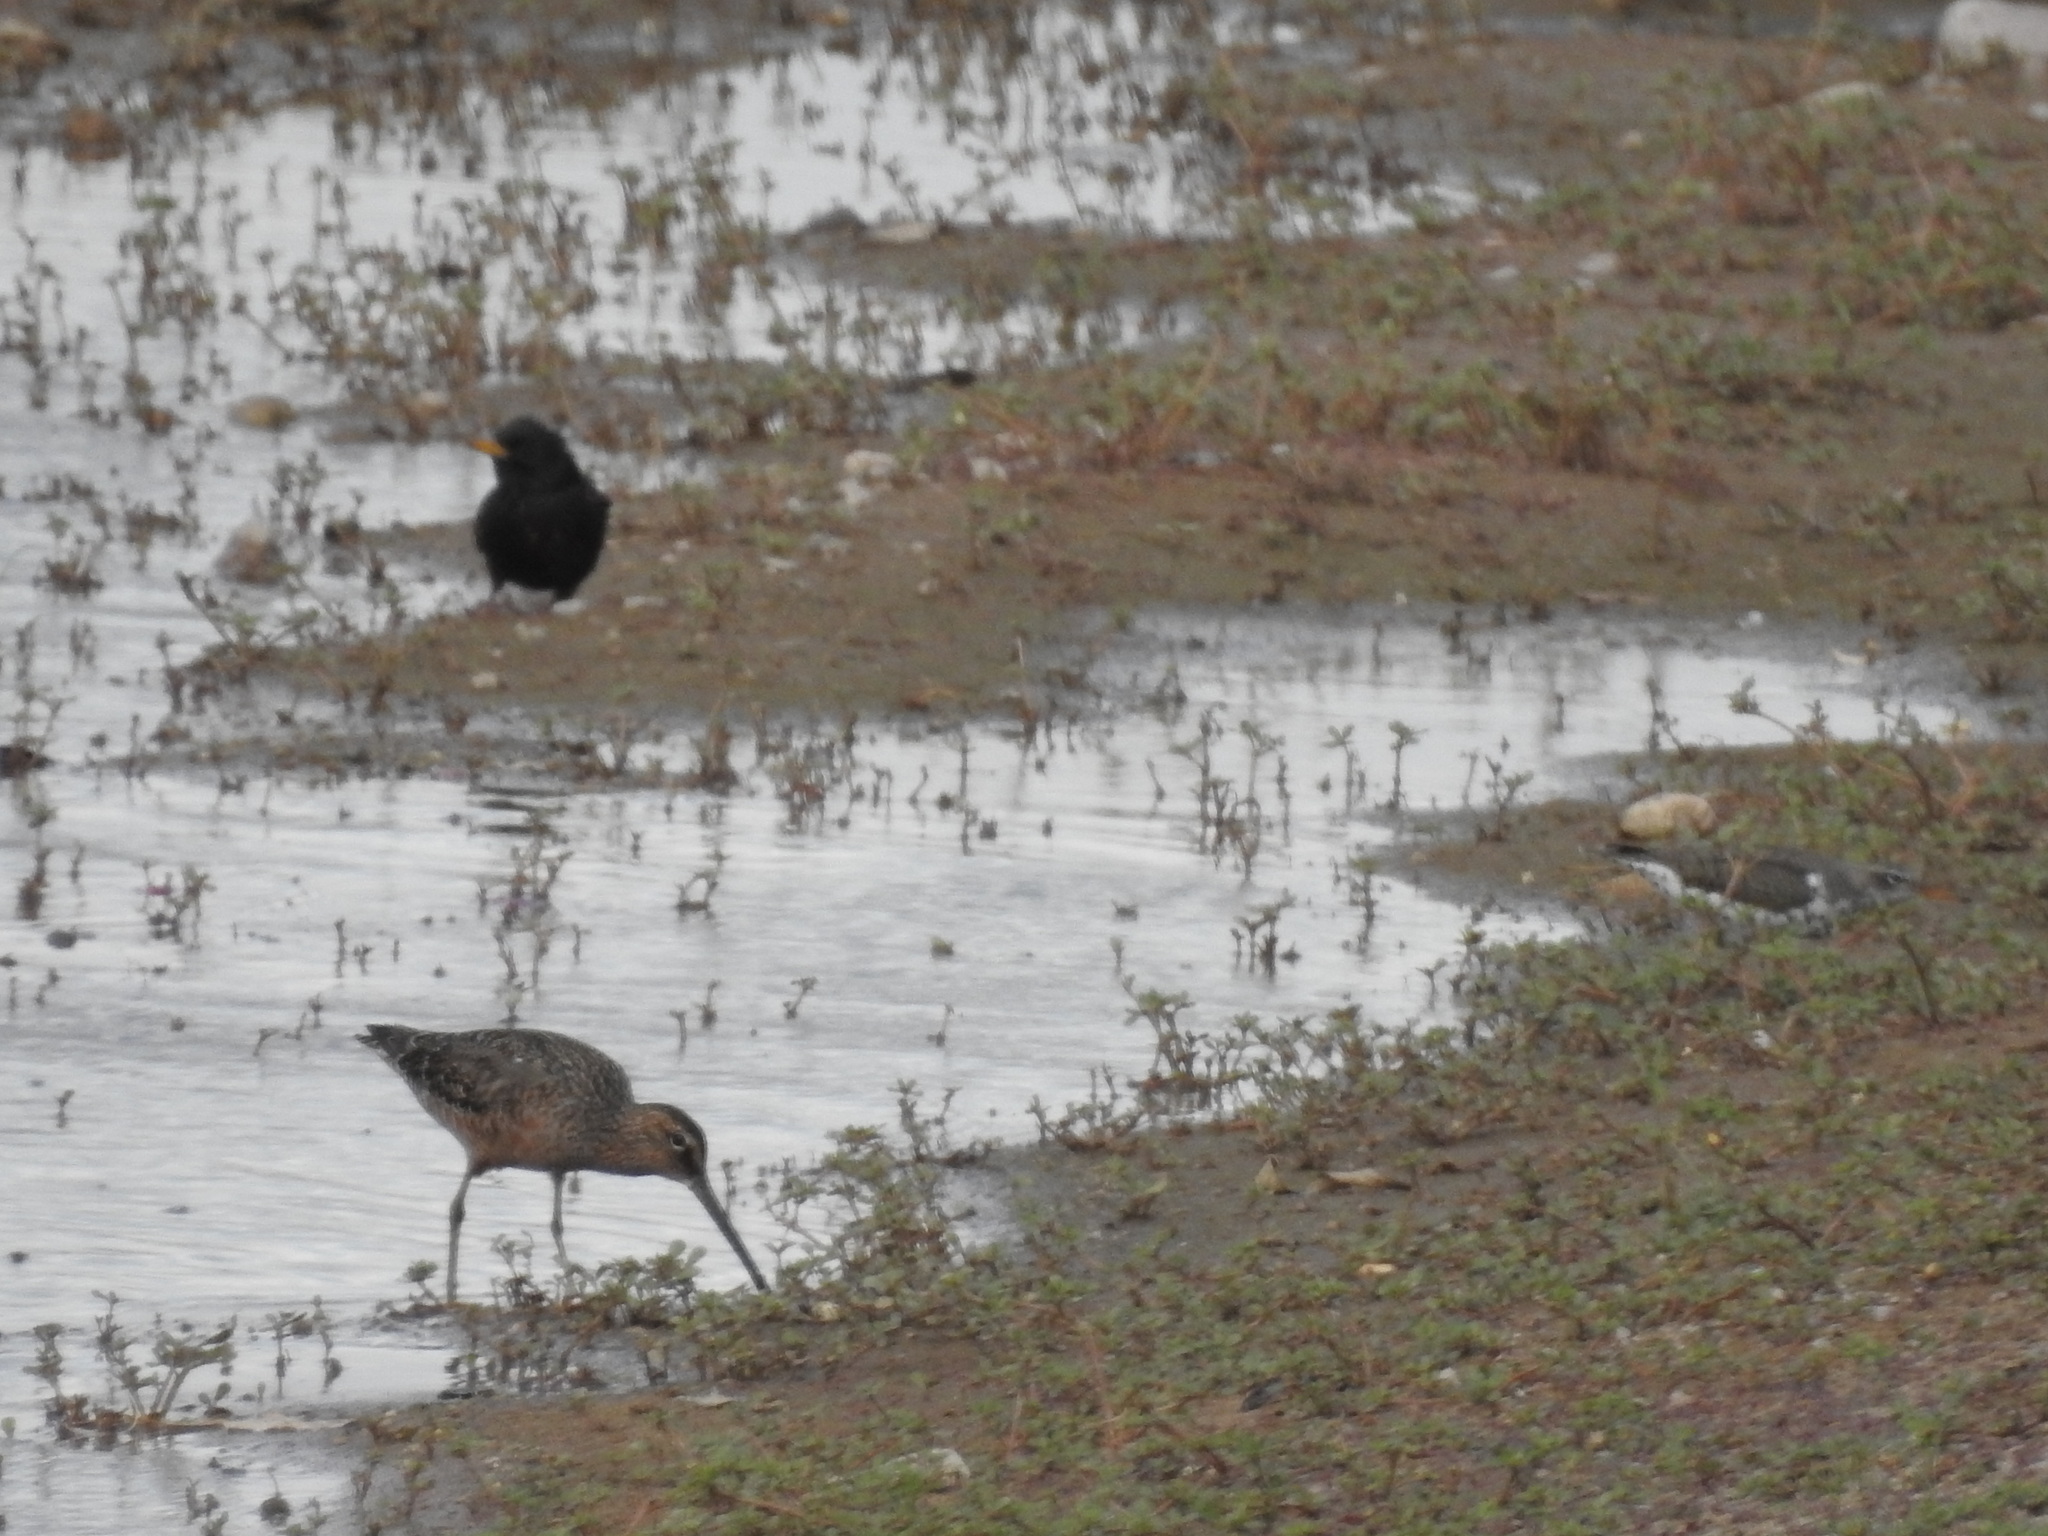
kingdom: Animalia
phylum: Chordata
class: Aves
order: Charadriiformes
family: Scolopacidae
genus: Limnodromus
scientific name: Limnodromus scolopaceus
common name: Long-billed dowitcher
